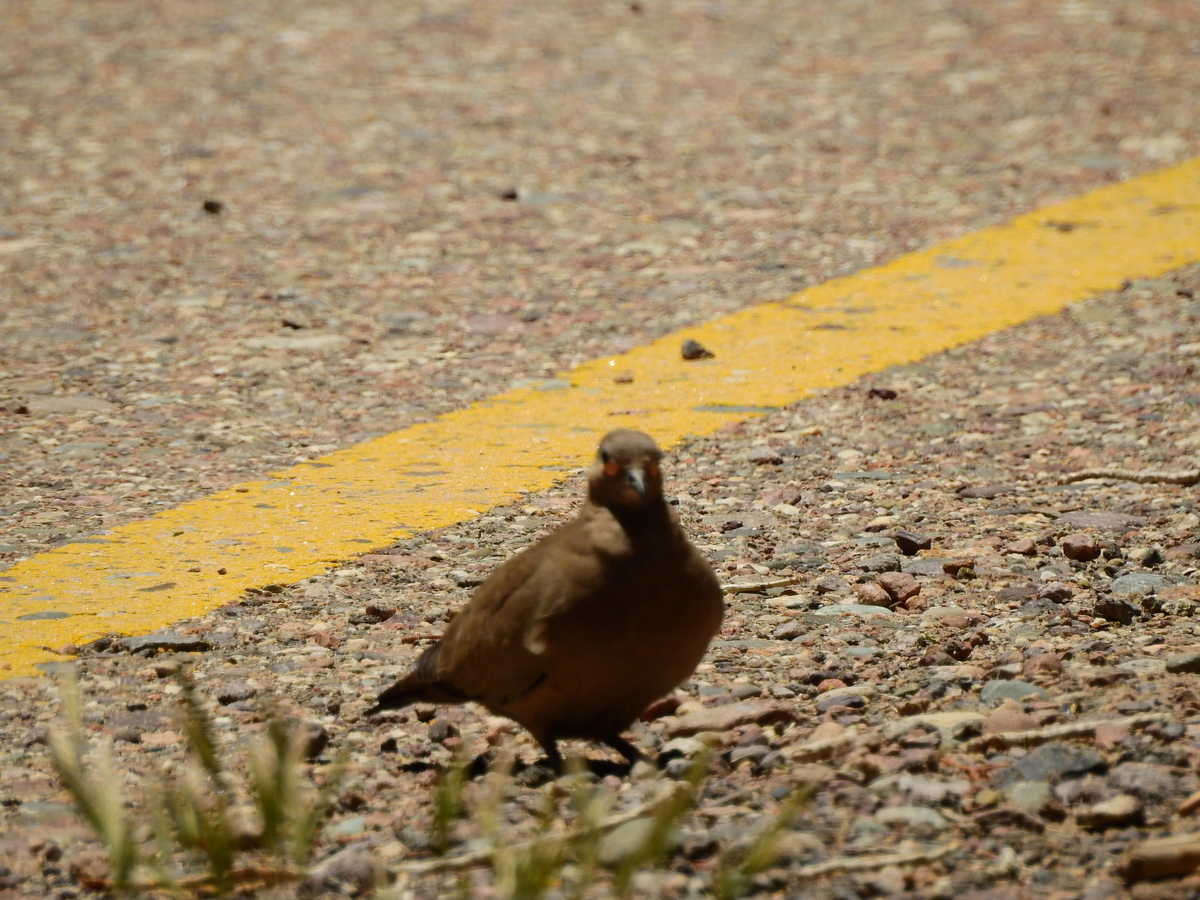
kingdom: Animalia
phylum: Chordata
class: Aves
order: Columbiformes
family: Columbidae
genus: Metriopelia
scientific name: Metriopelia melanoptera
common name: Black-winged ground dove
